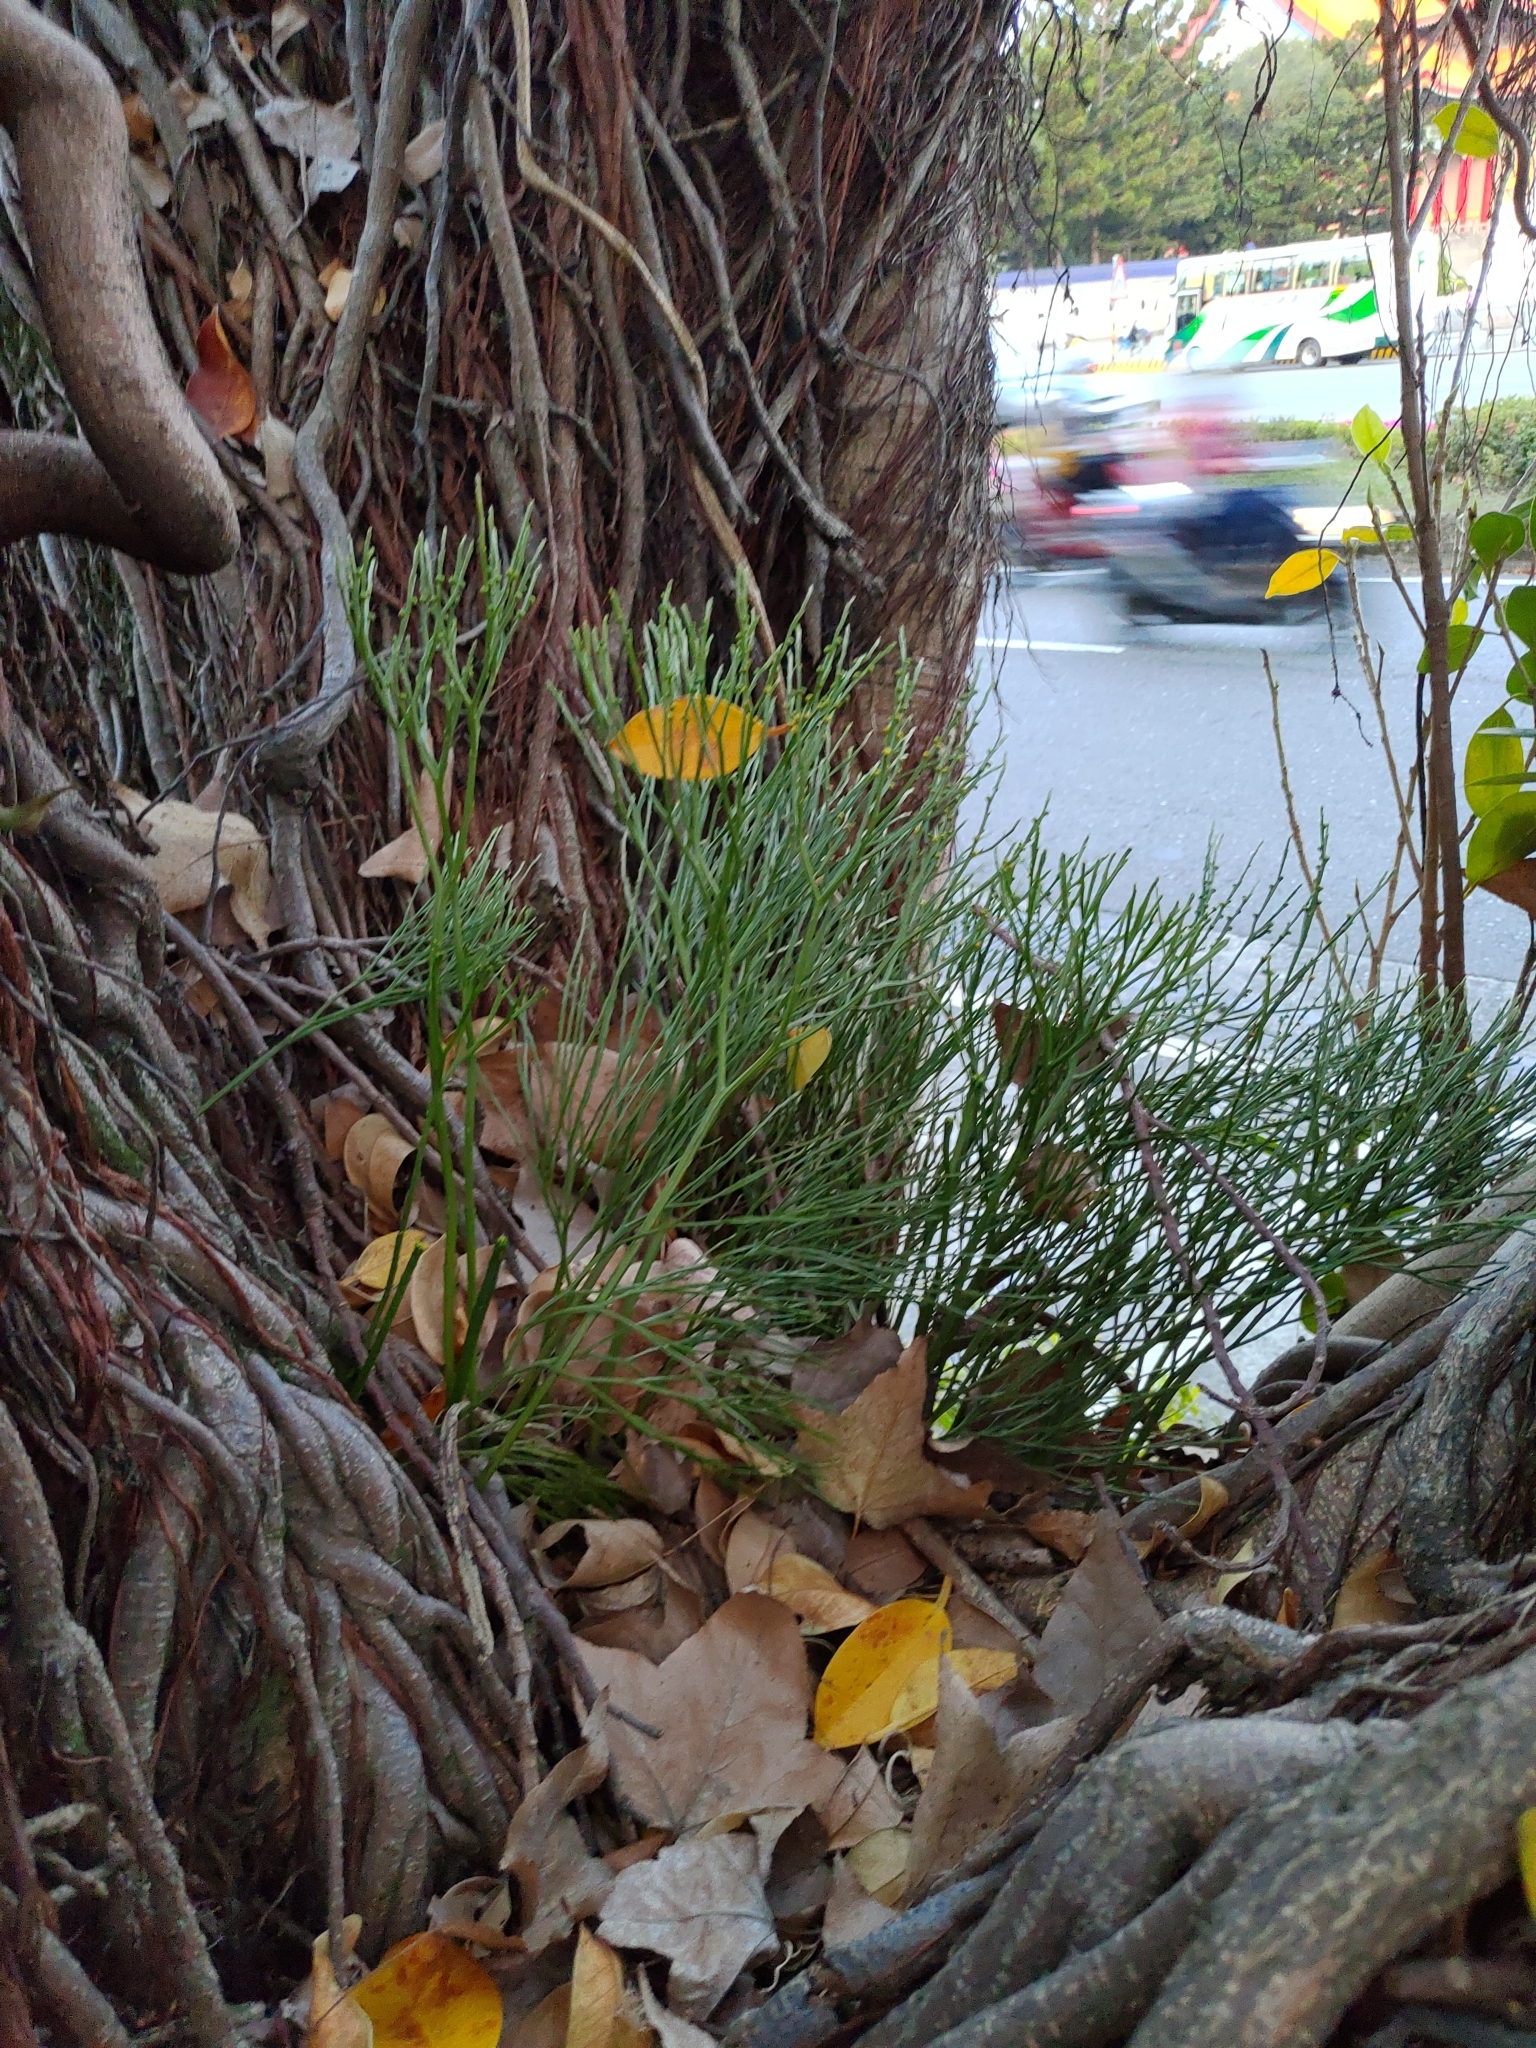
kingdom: Plantae
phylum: Tracheophyta
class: Polypodiopsida
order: Psilotales
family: Psilotaceae
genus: Psilotum
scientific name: Psilotum nudum
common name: Skeleton fork fern
